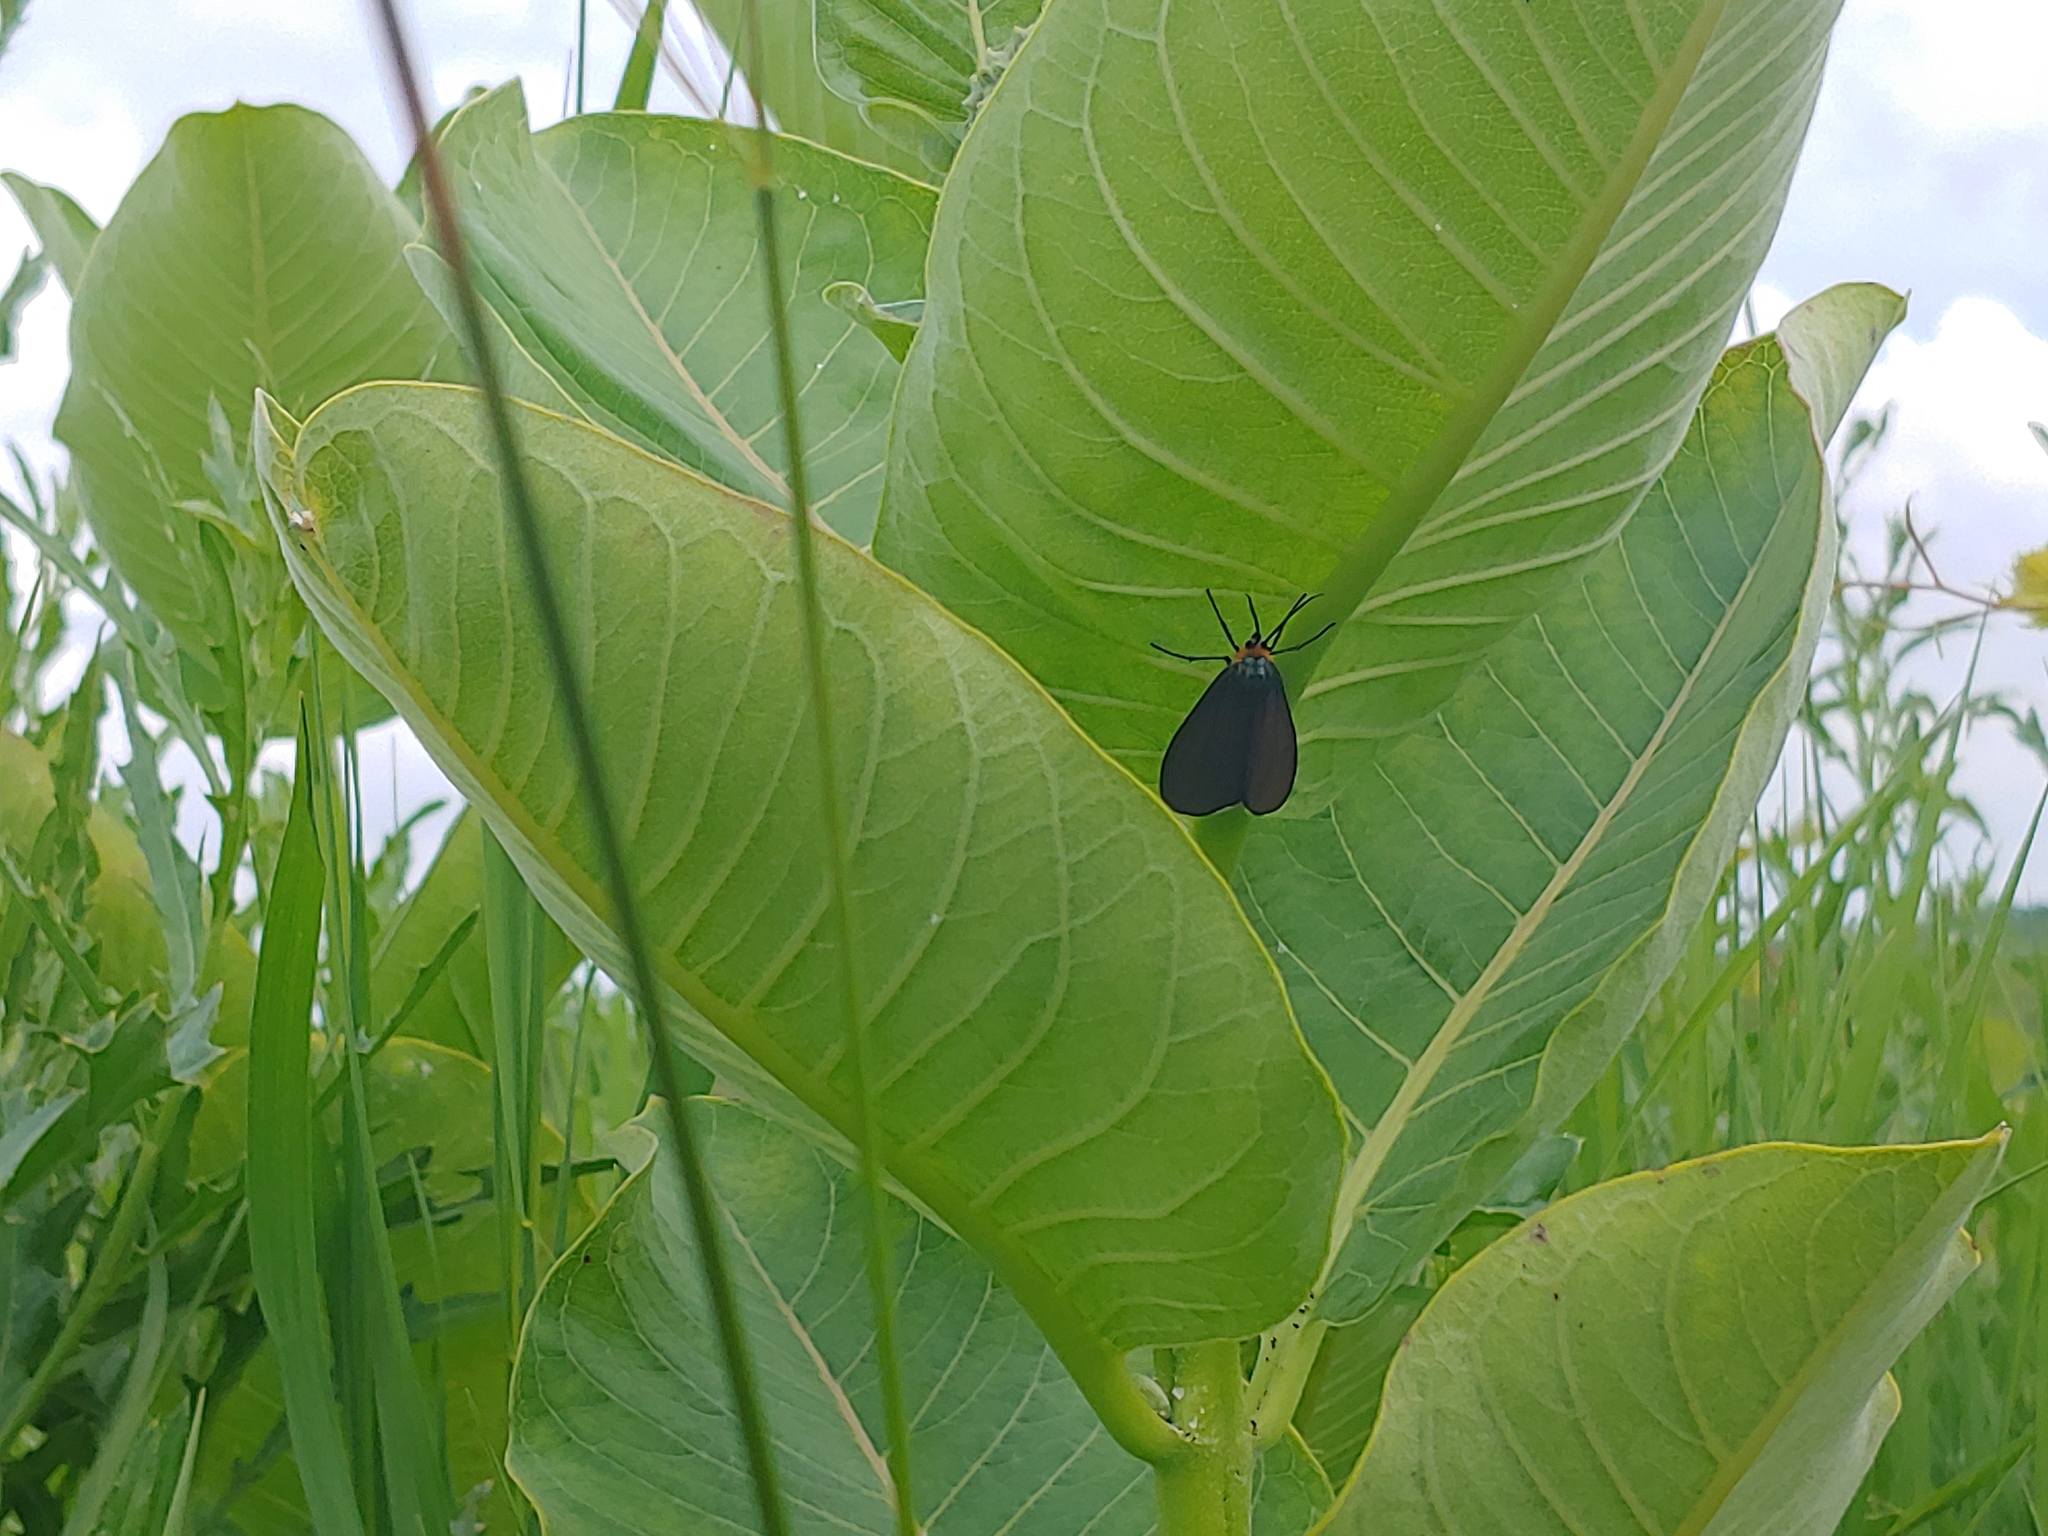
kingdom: Animalia
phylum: Arthropoda
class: Insecta
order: Lepidoptera
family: Erebidae
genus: Ctenucha
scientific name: Ctenucha virginica
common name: Virginia ctenucha moth
